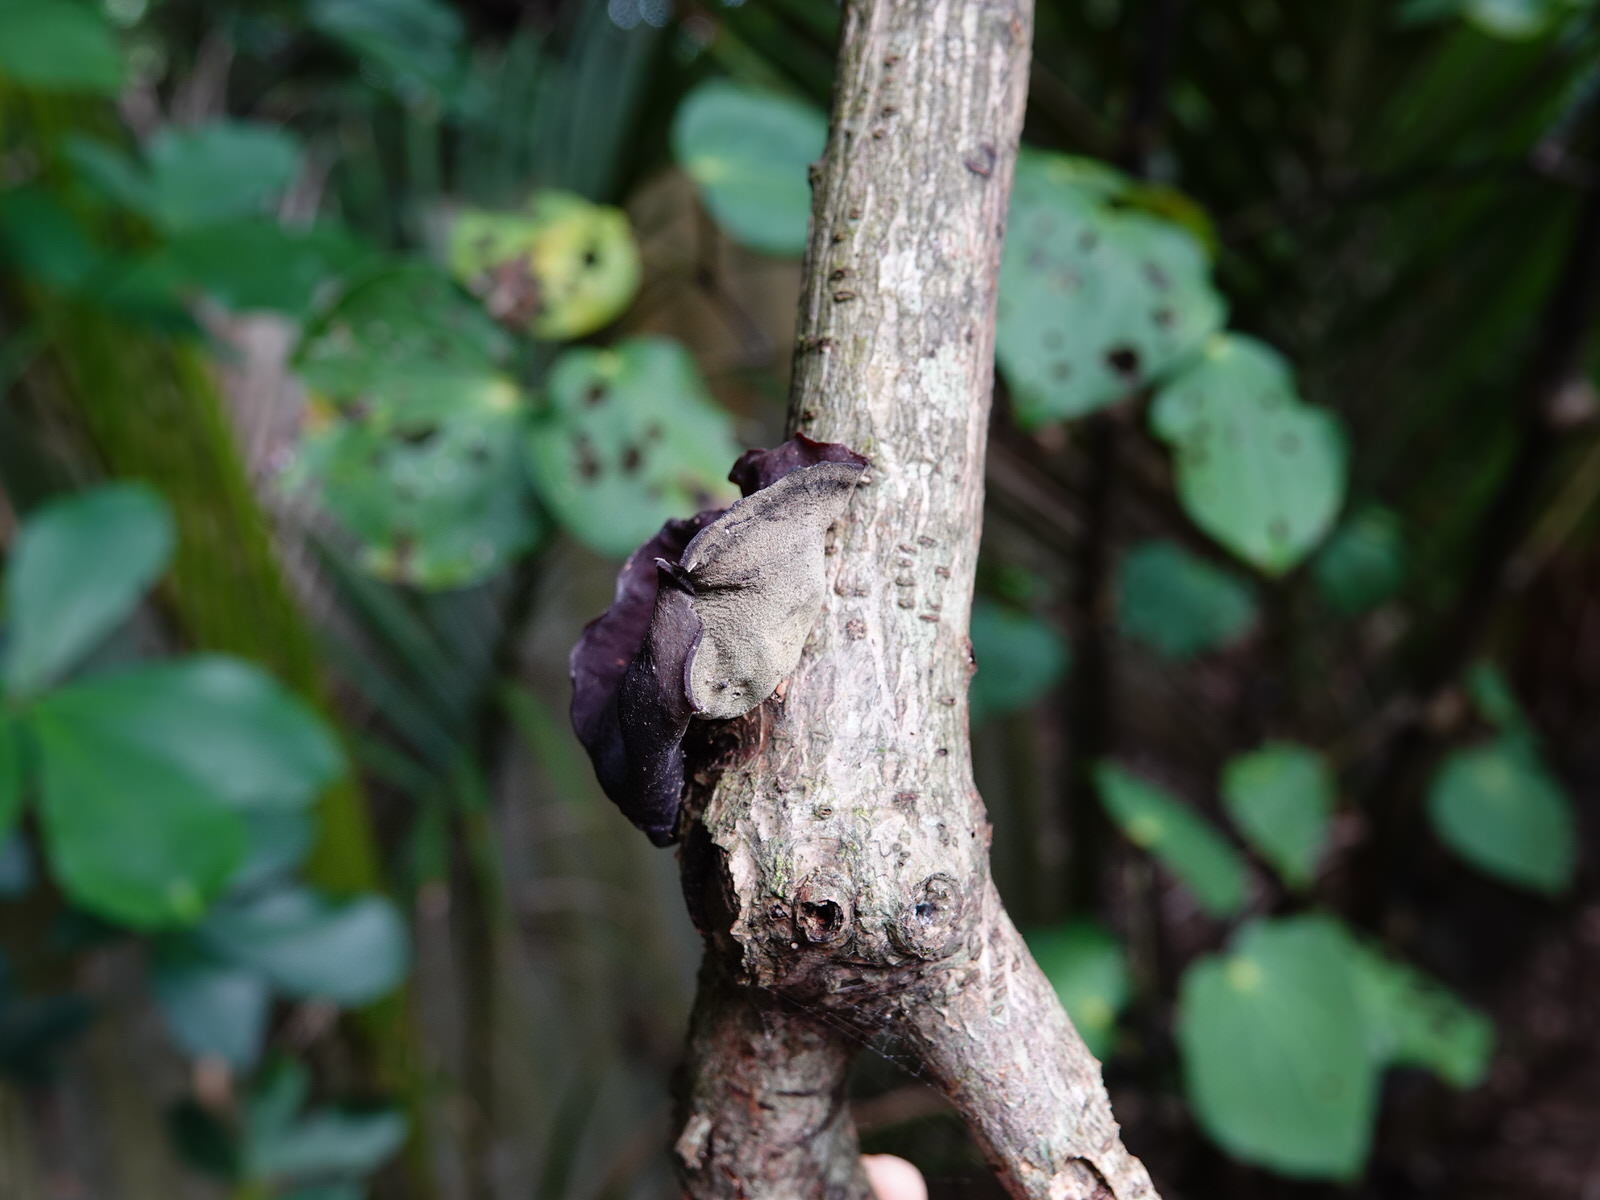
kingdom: Fungi
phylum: Basidiomycota
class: Agaricomycetes
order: Auriculariales
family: Auriculariaceae
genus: Auricularia
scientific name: Auricularia cornea
